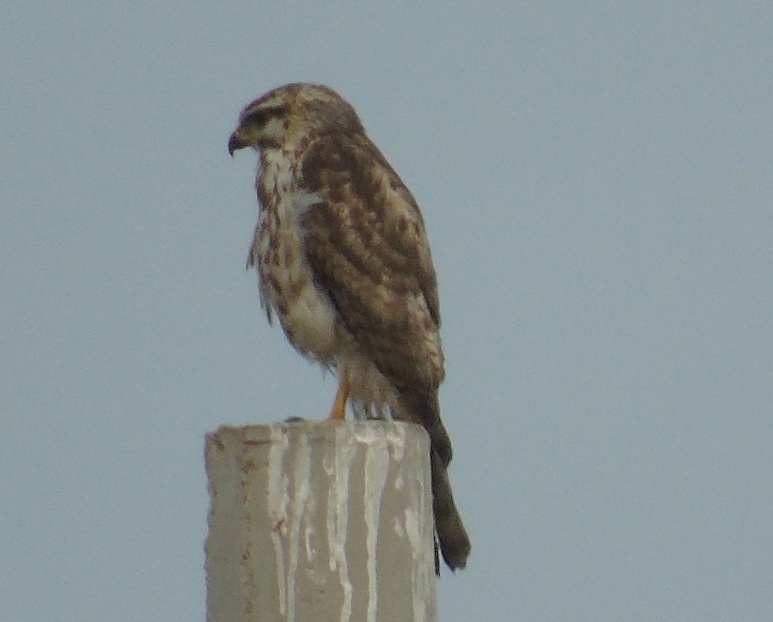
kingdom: Animalia
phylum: Chordata
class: Aves
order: Accipitriformes
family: Accipitridae
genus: Buteo
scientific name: Buteo nitidus
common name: Grey-lined hawk
